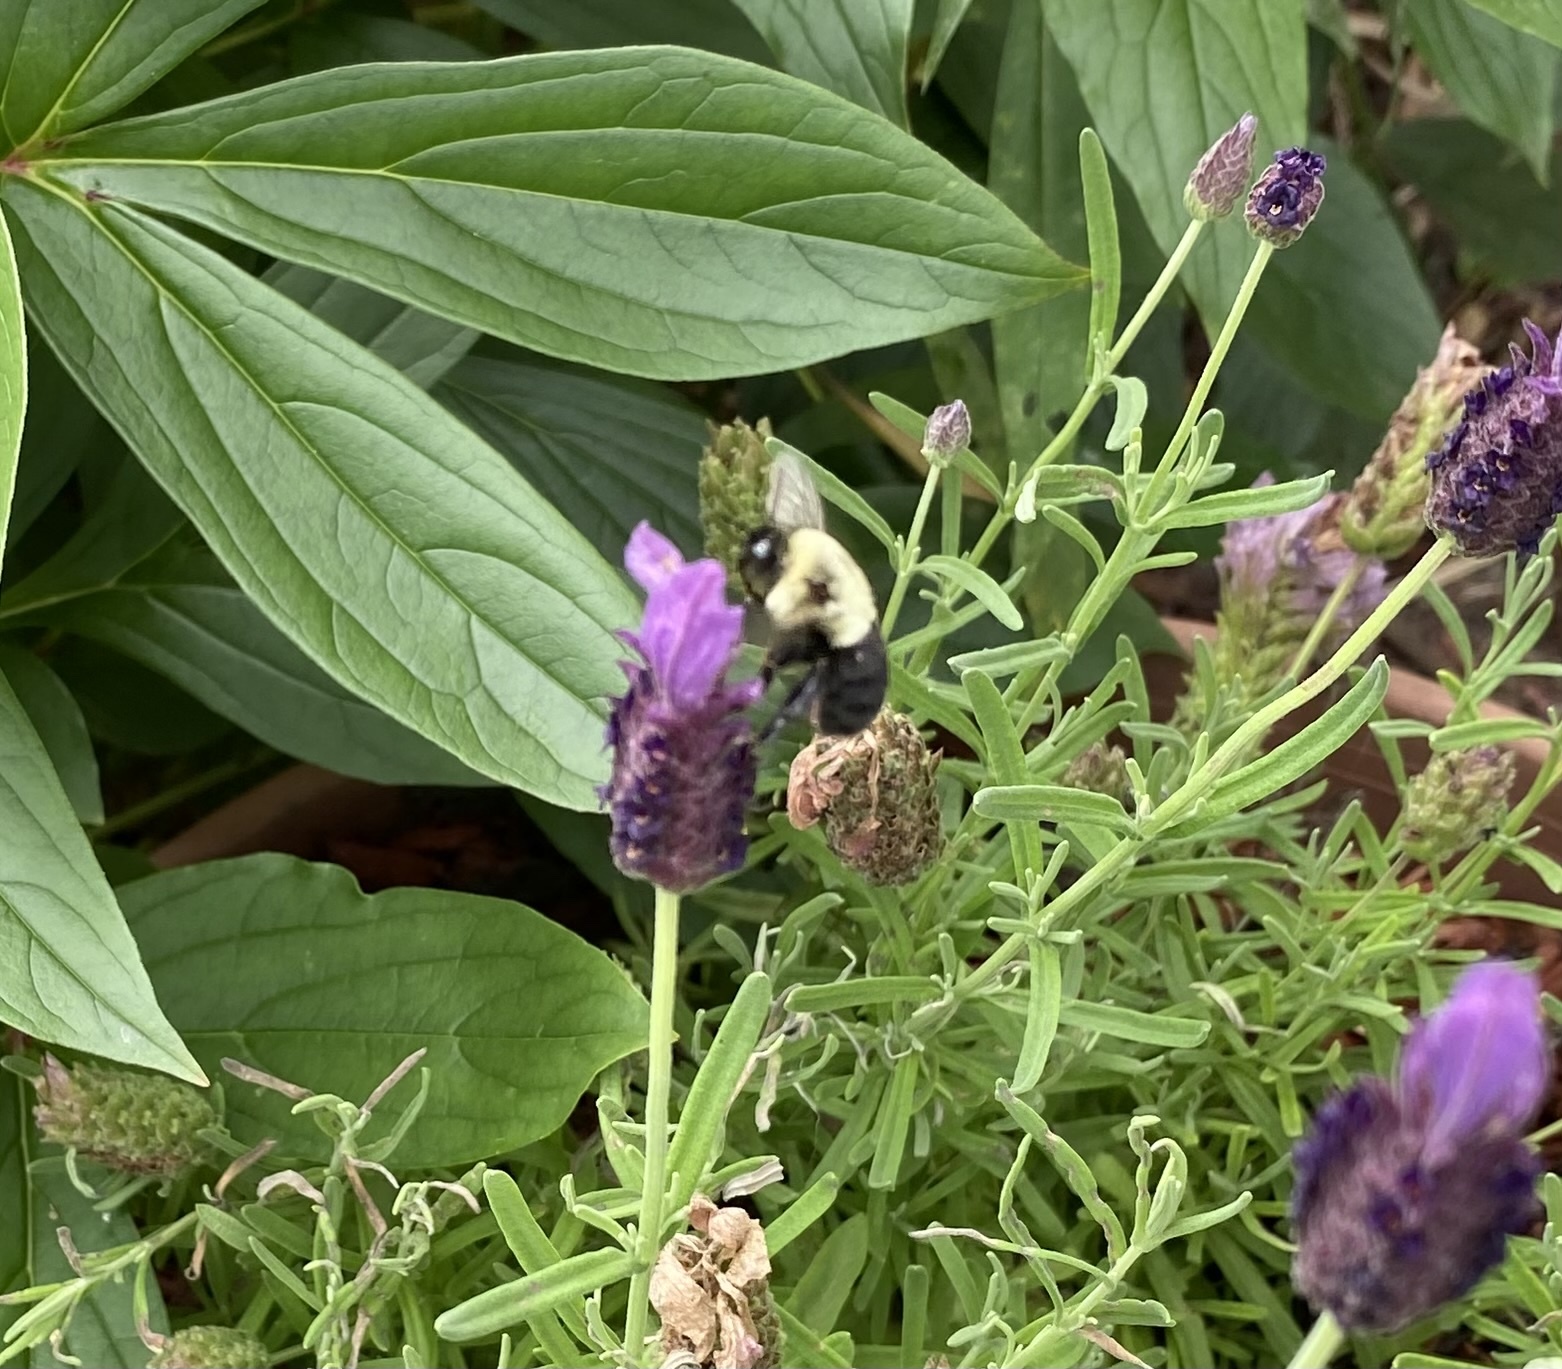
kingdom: Animalia
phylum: Arthropoda
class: Insecta
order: Hymenoptera
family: Apidae
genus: Bombus
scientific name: Bombus impatiens
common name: Common eastern bumble bee
